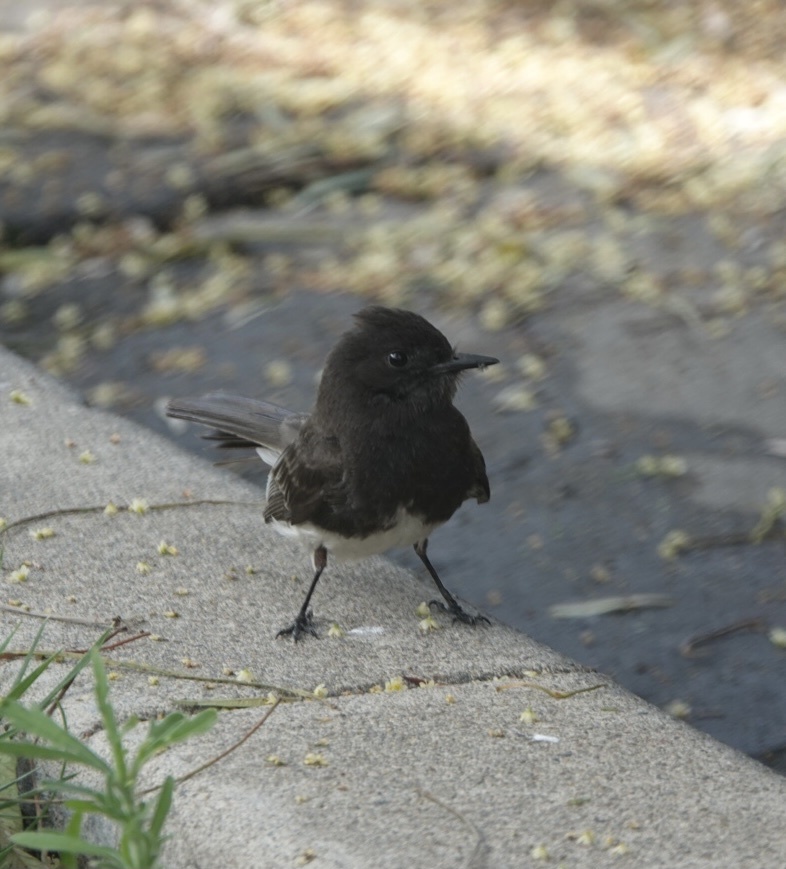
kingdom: Animalia
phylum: Chordata
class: Aves
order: Passeriformes
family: Tyrannidae
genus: Sayornis
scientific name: Sayornis nigricans
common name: Black phoebe
